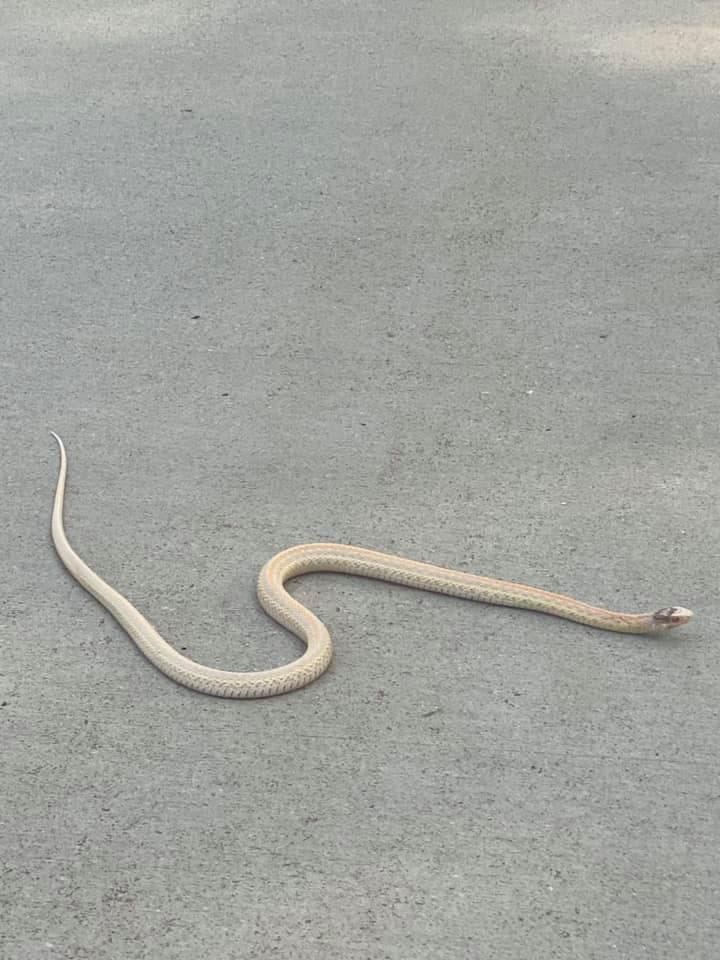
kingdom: Animalia
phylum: Chordata
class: Squamata
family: Colubridae
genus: Thamnophis
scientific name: Thamnophis elegans
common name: Western terrestrial garter snake
